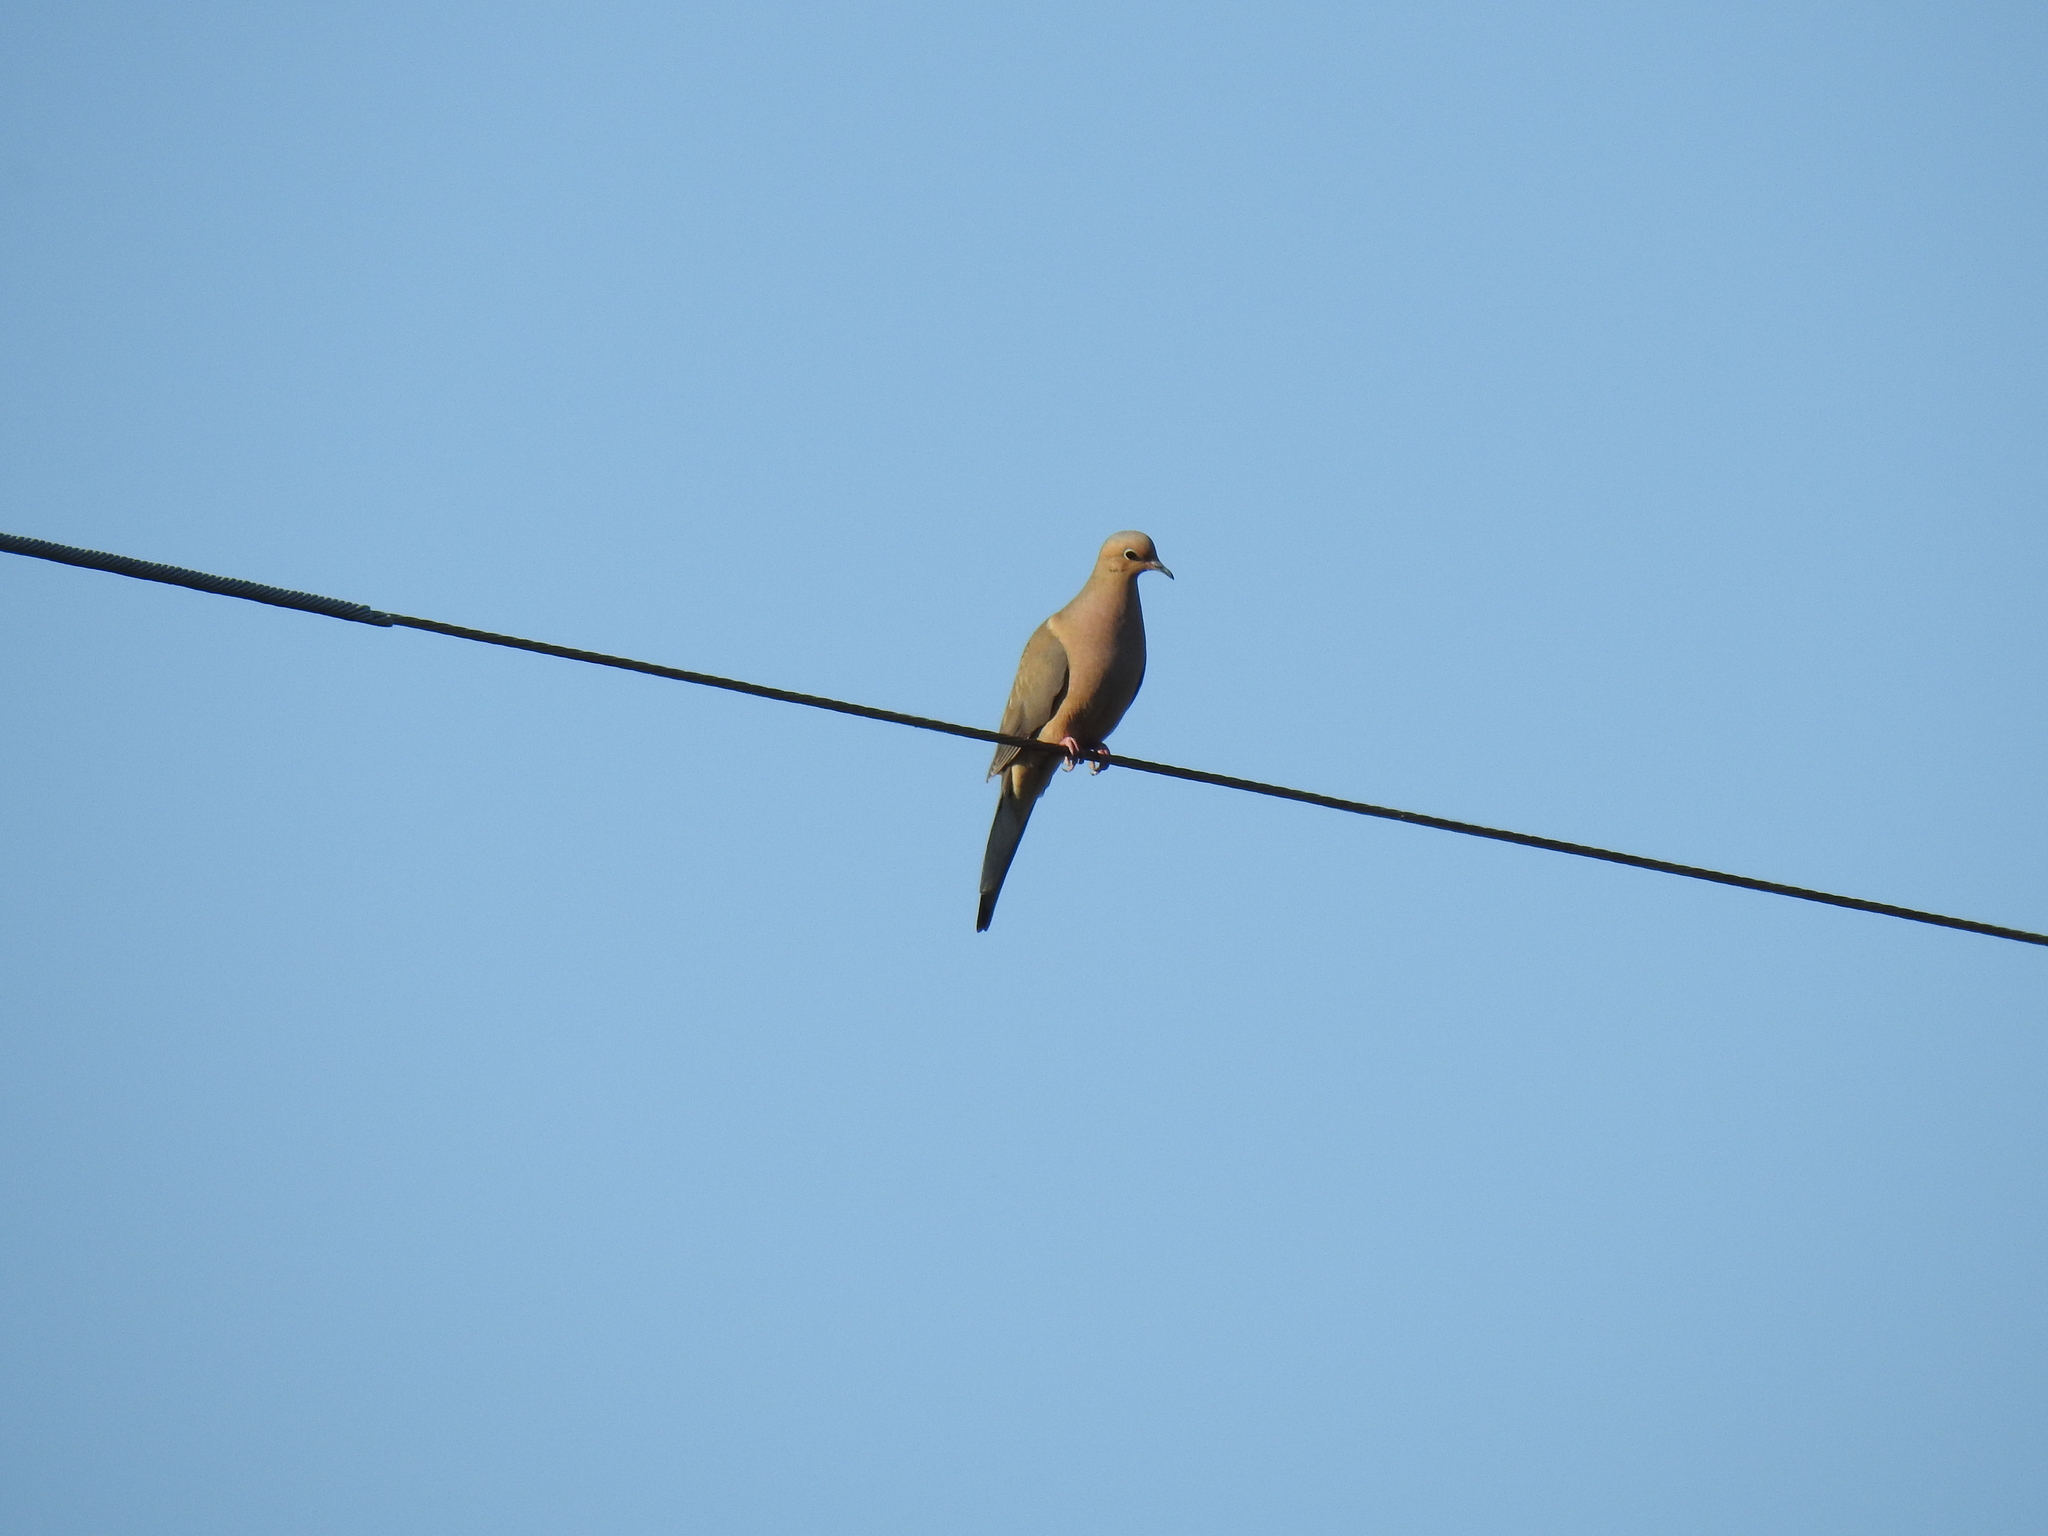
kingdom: Animalia
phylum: Chordata
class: Aves
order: Columbiformes
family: Columbidae
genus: Zenaida
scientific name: Zenaida macroura
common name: Mourning dove
